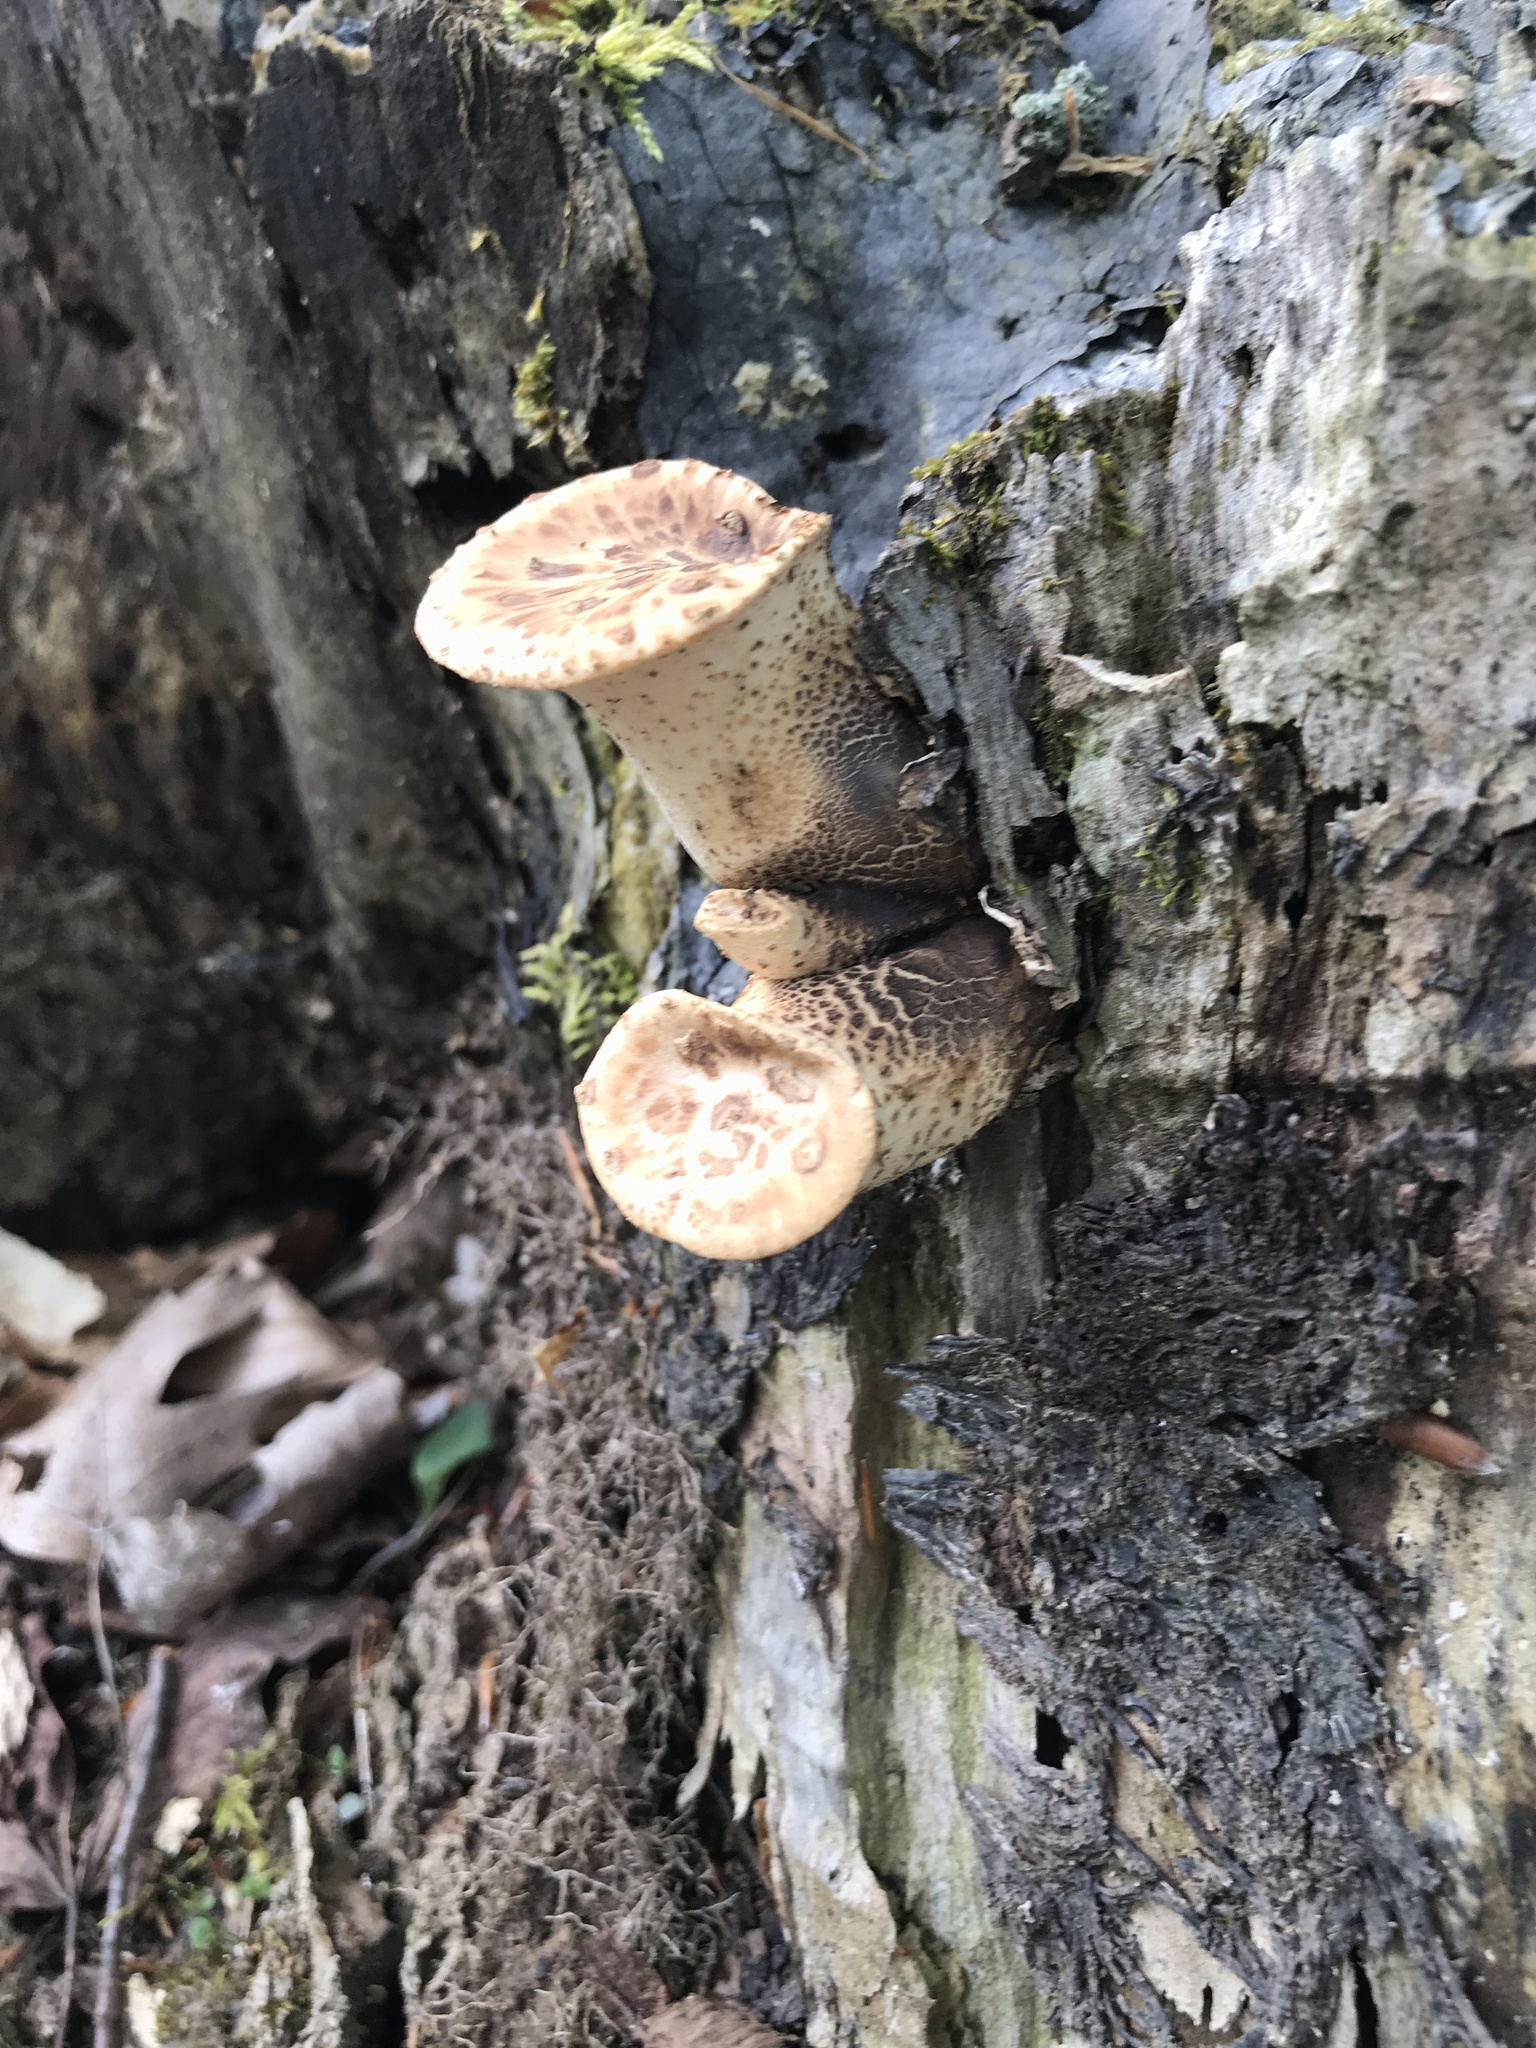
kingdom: Fungi
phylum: Basidiomycota
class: Agaricomycetes
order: Polyporales
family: Polyporaceae
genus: Cerioporus
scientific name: Cerioporus squamosus
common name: Dryad's saddle
